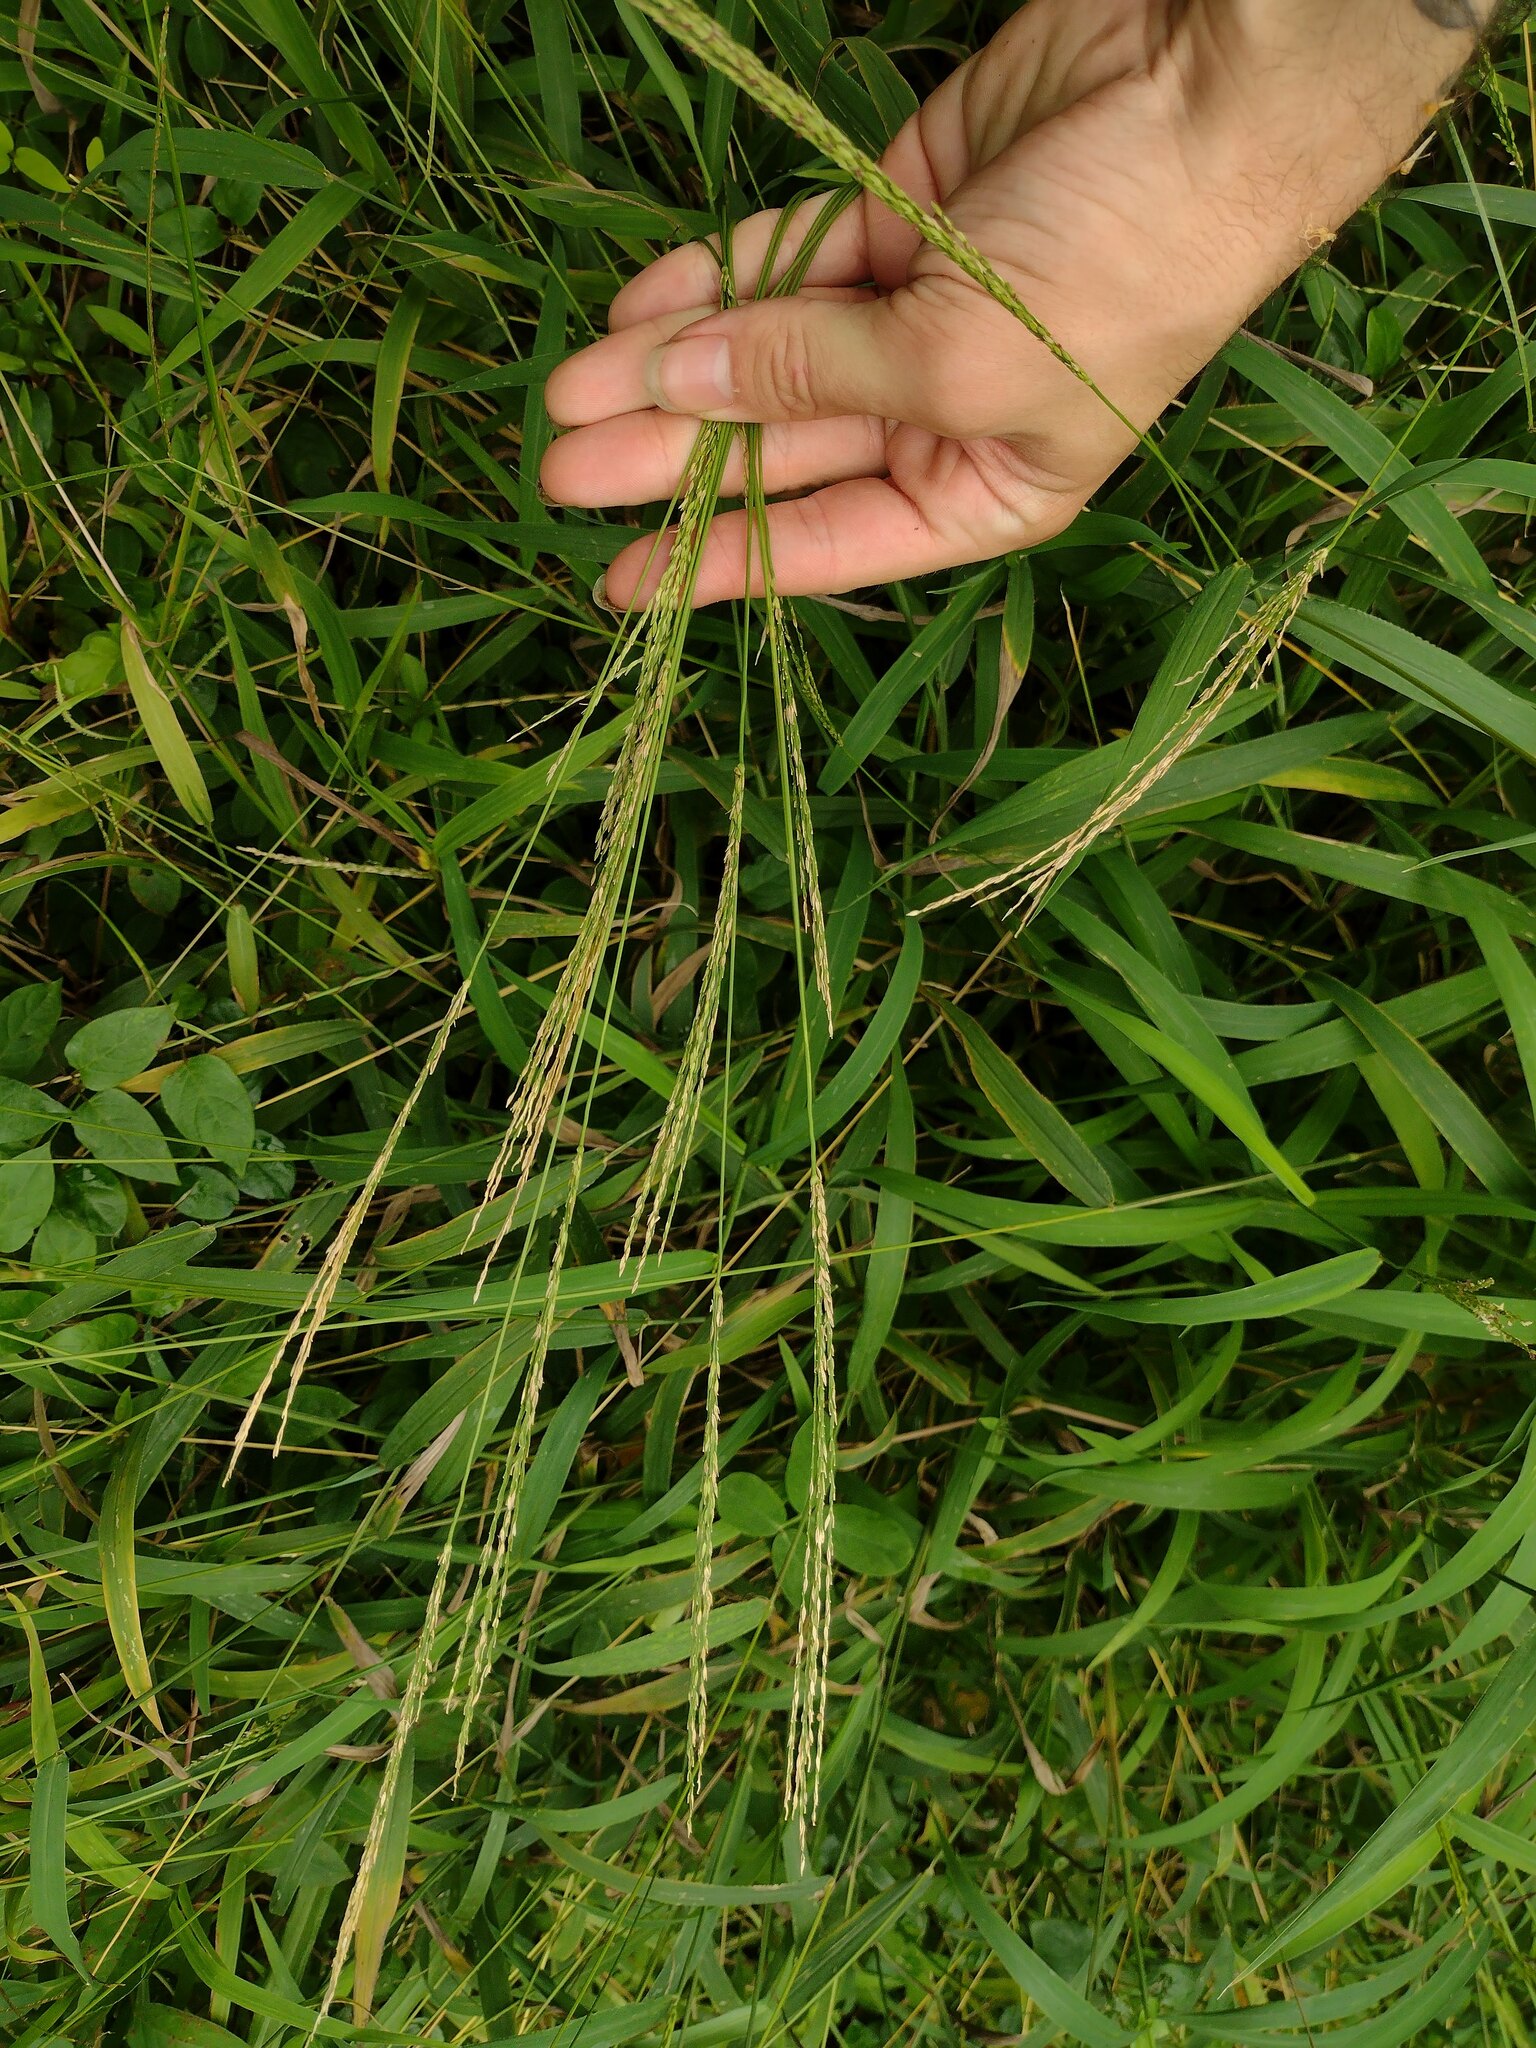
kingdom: Plantae
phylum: Tracheophyta
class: Liliopsida
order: Poales
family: Poaceae
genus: Digitaria
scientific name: Digitaria setigera
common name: East indian crabgrass
